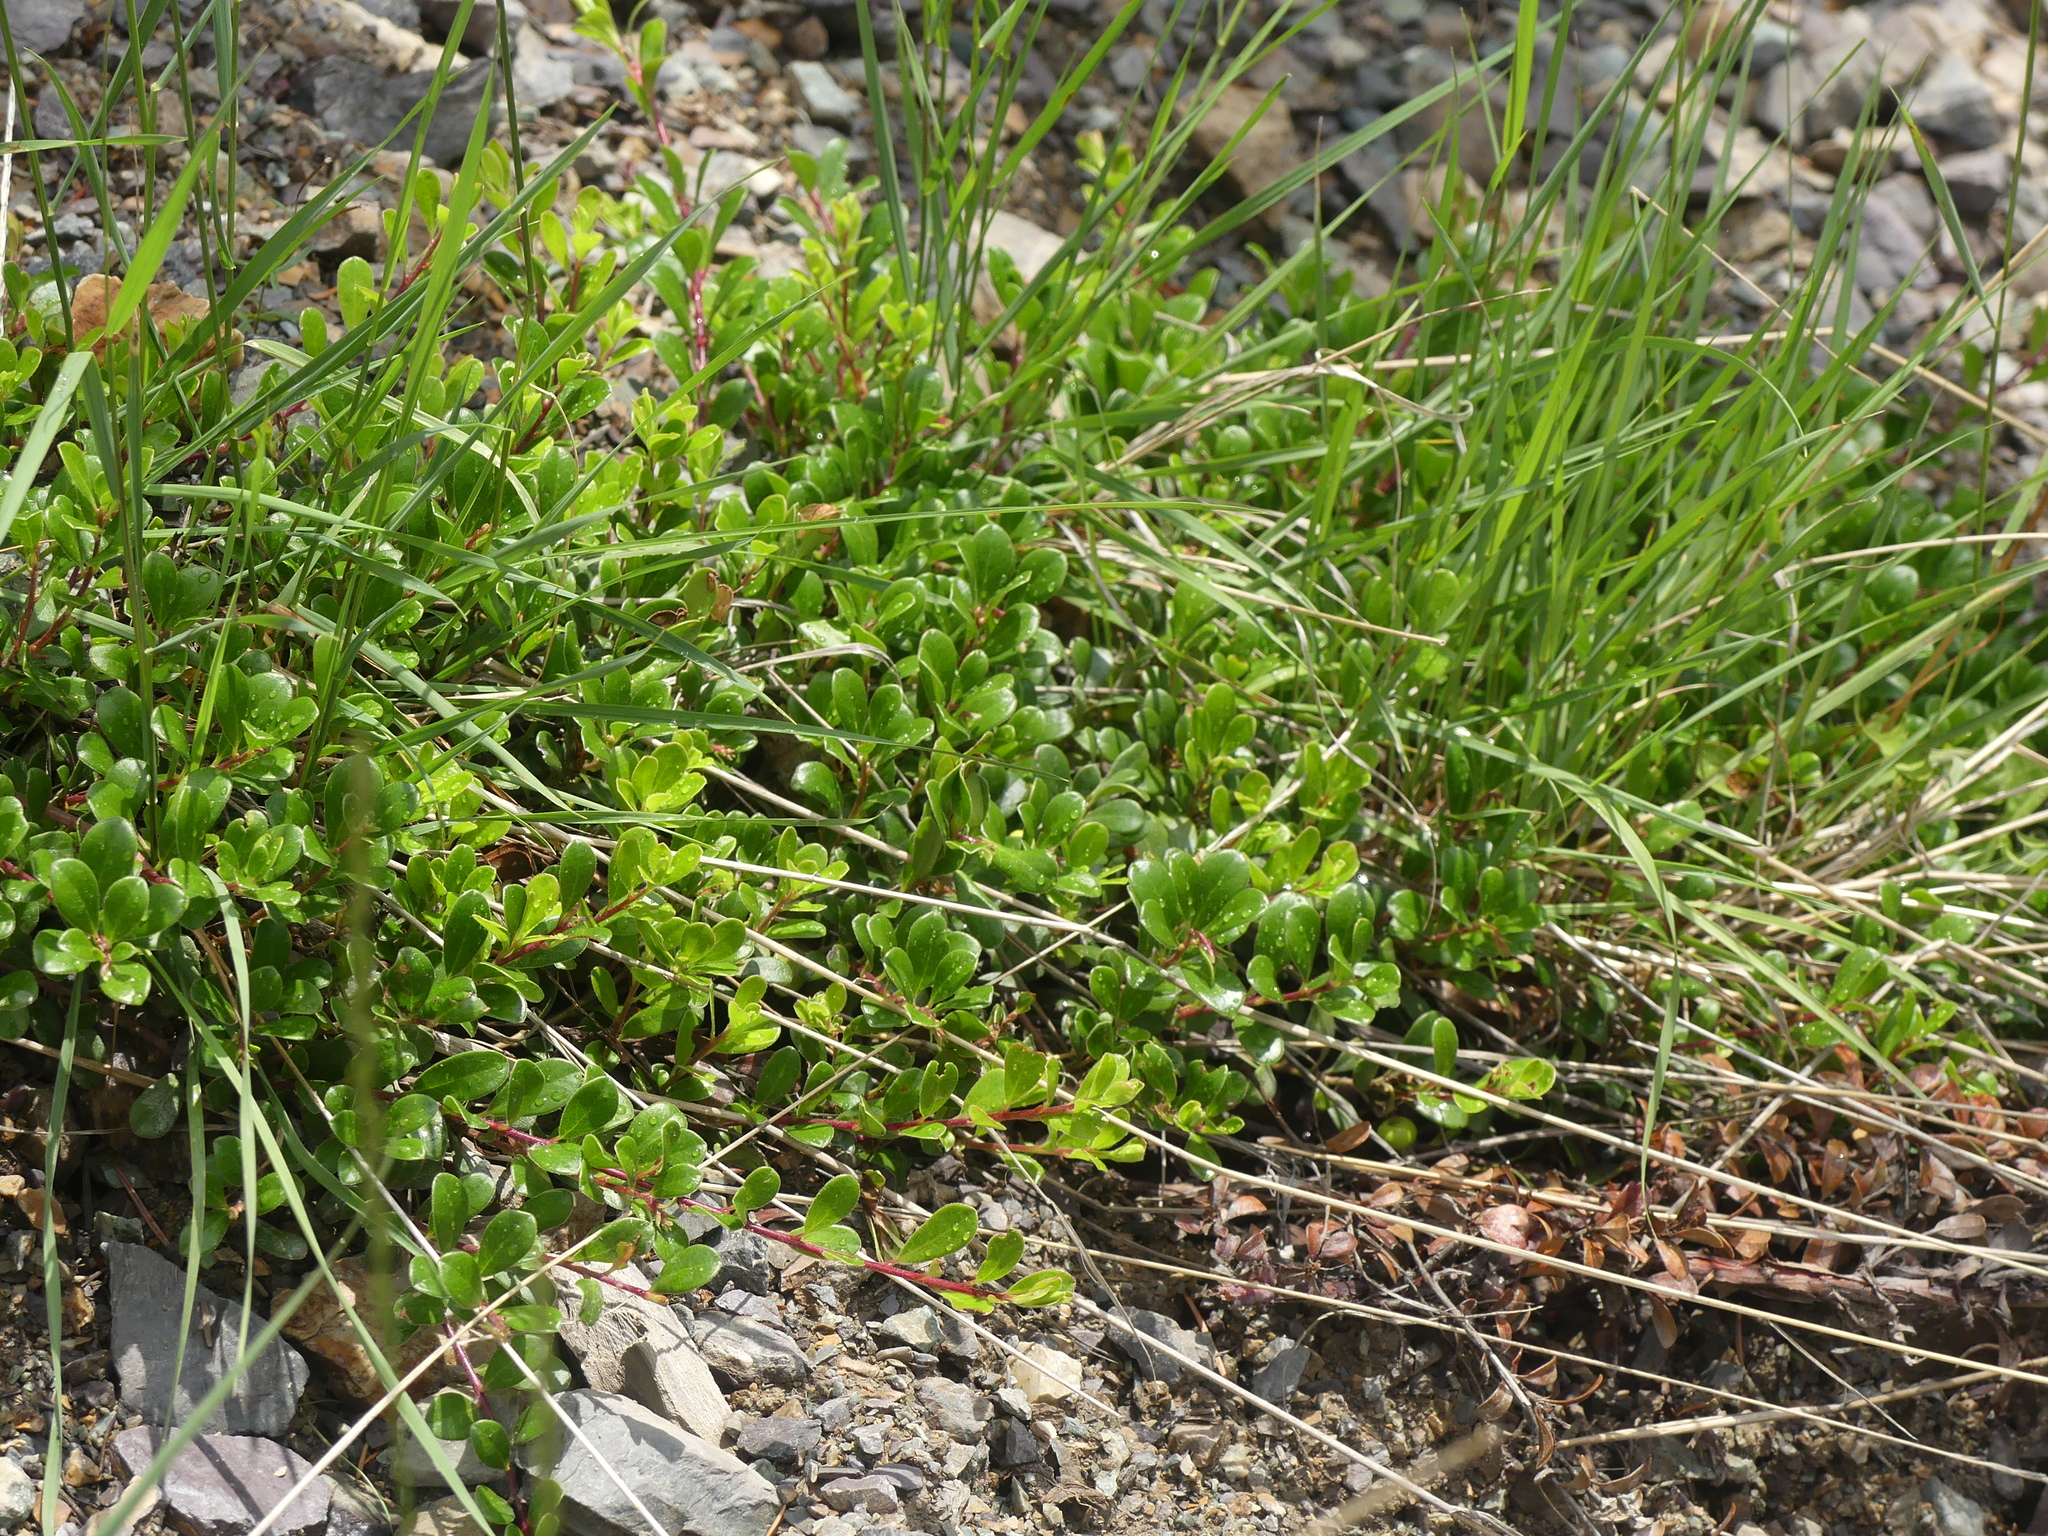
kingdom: Plantae
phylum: Tracheophyta
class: Magnoliopsida
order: Ericales
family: Ericaceae
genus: Arctostaphylos
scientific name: Arctostaphylos uva-ursi
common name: Bearberry
